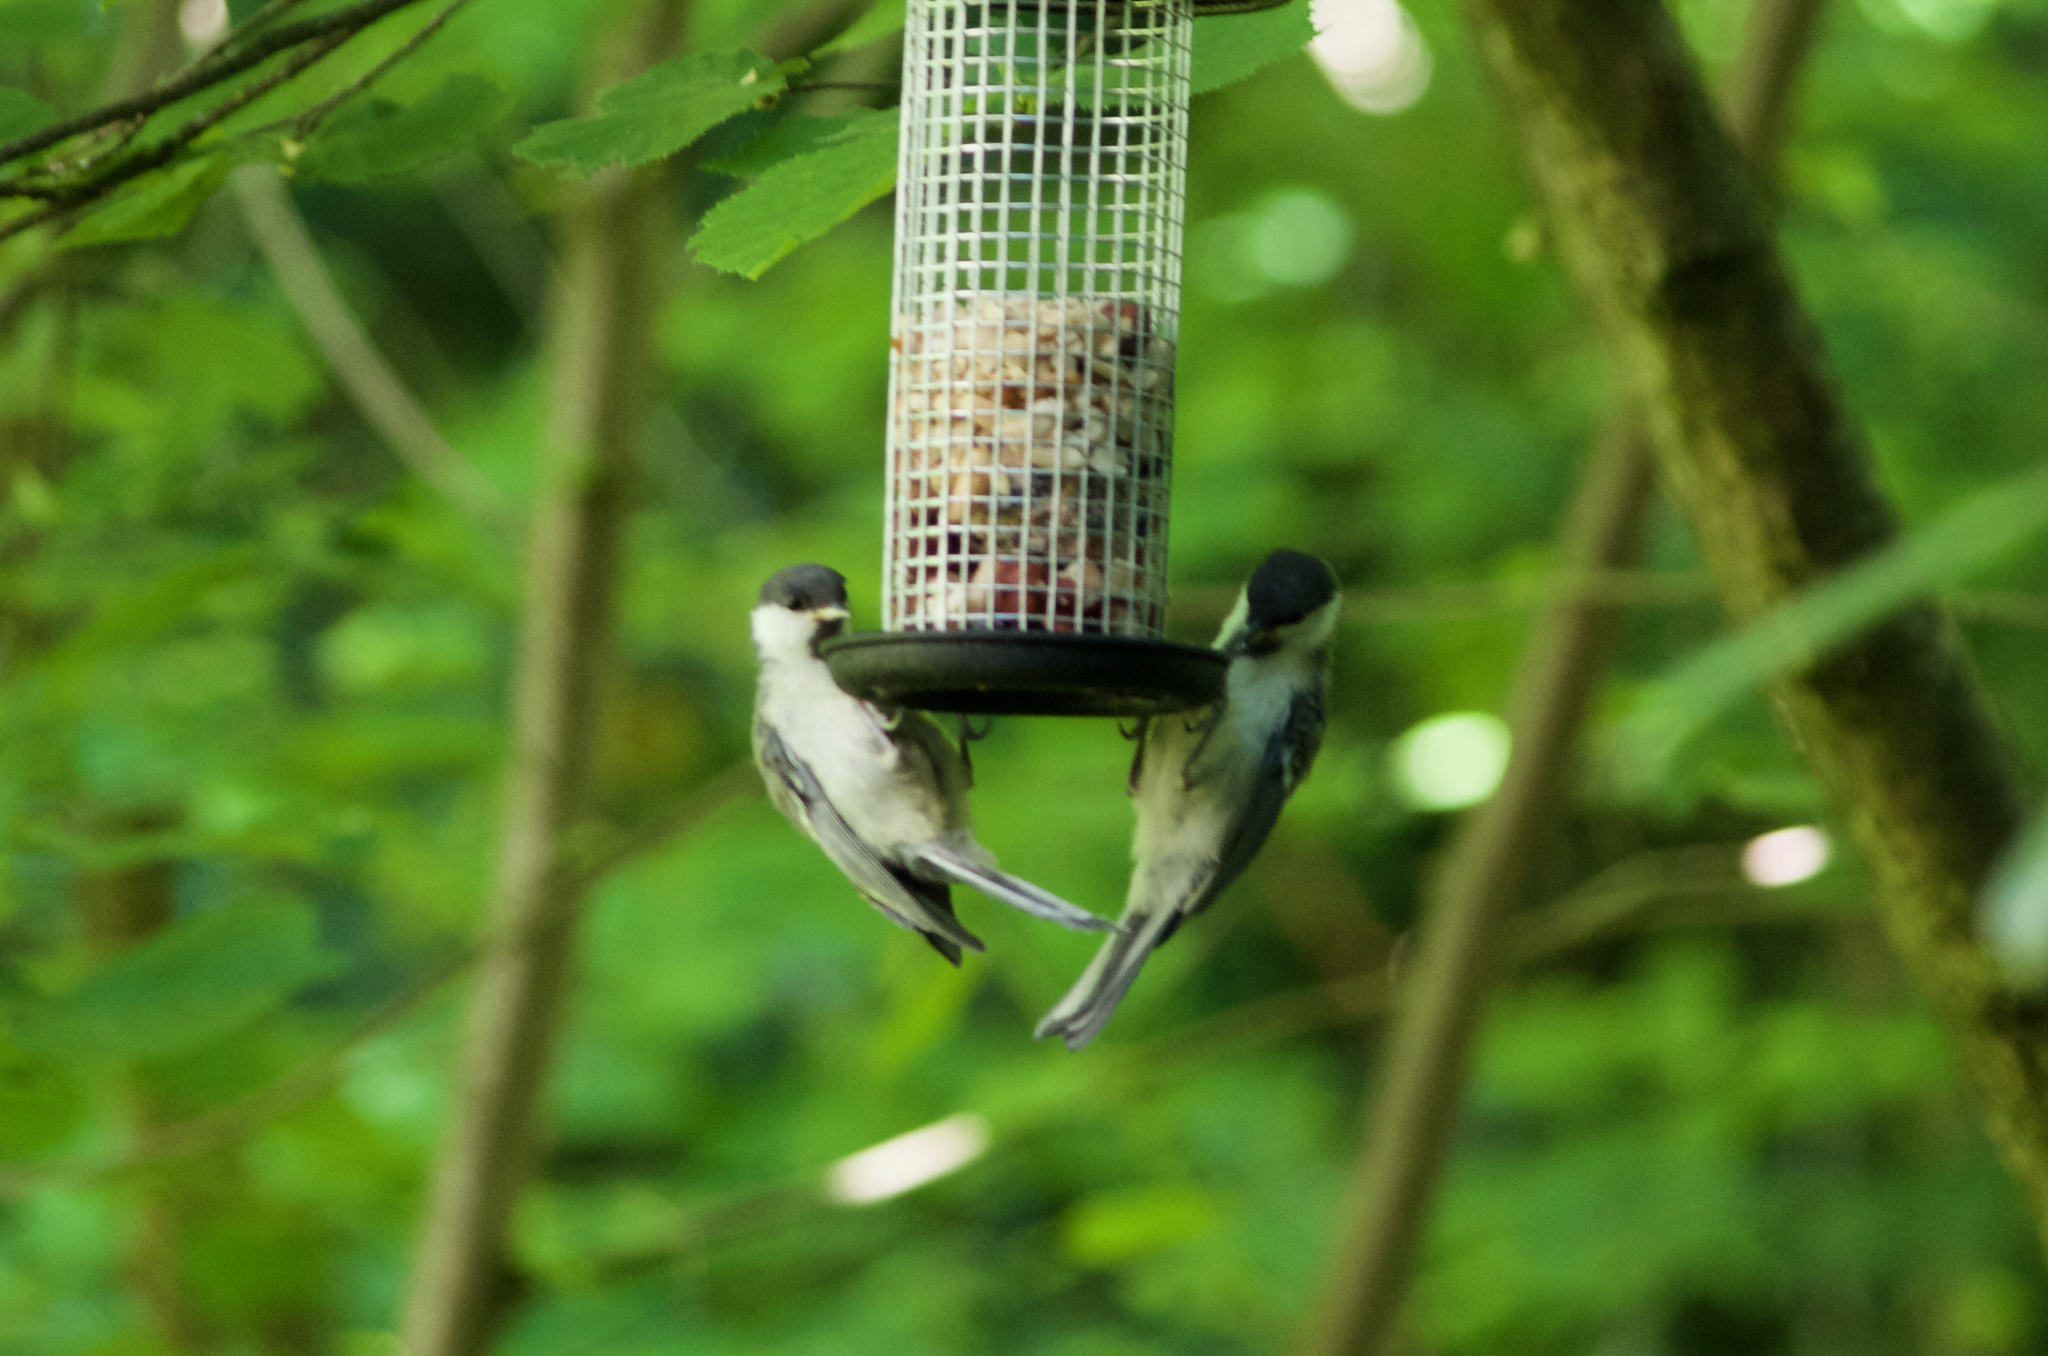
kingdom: Animalia
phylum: Chordata
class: Aves
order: Passeriformes
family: Paridae
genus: Parus
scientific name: Parus major
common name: Great tit
